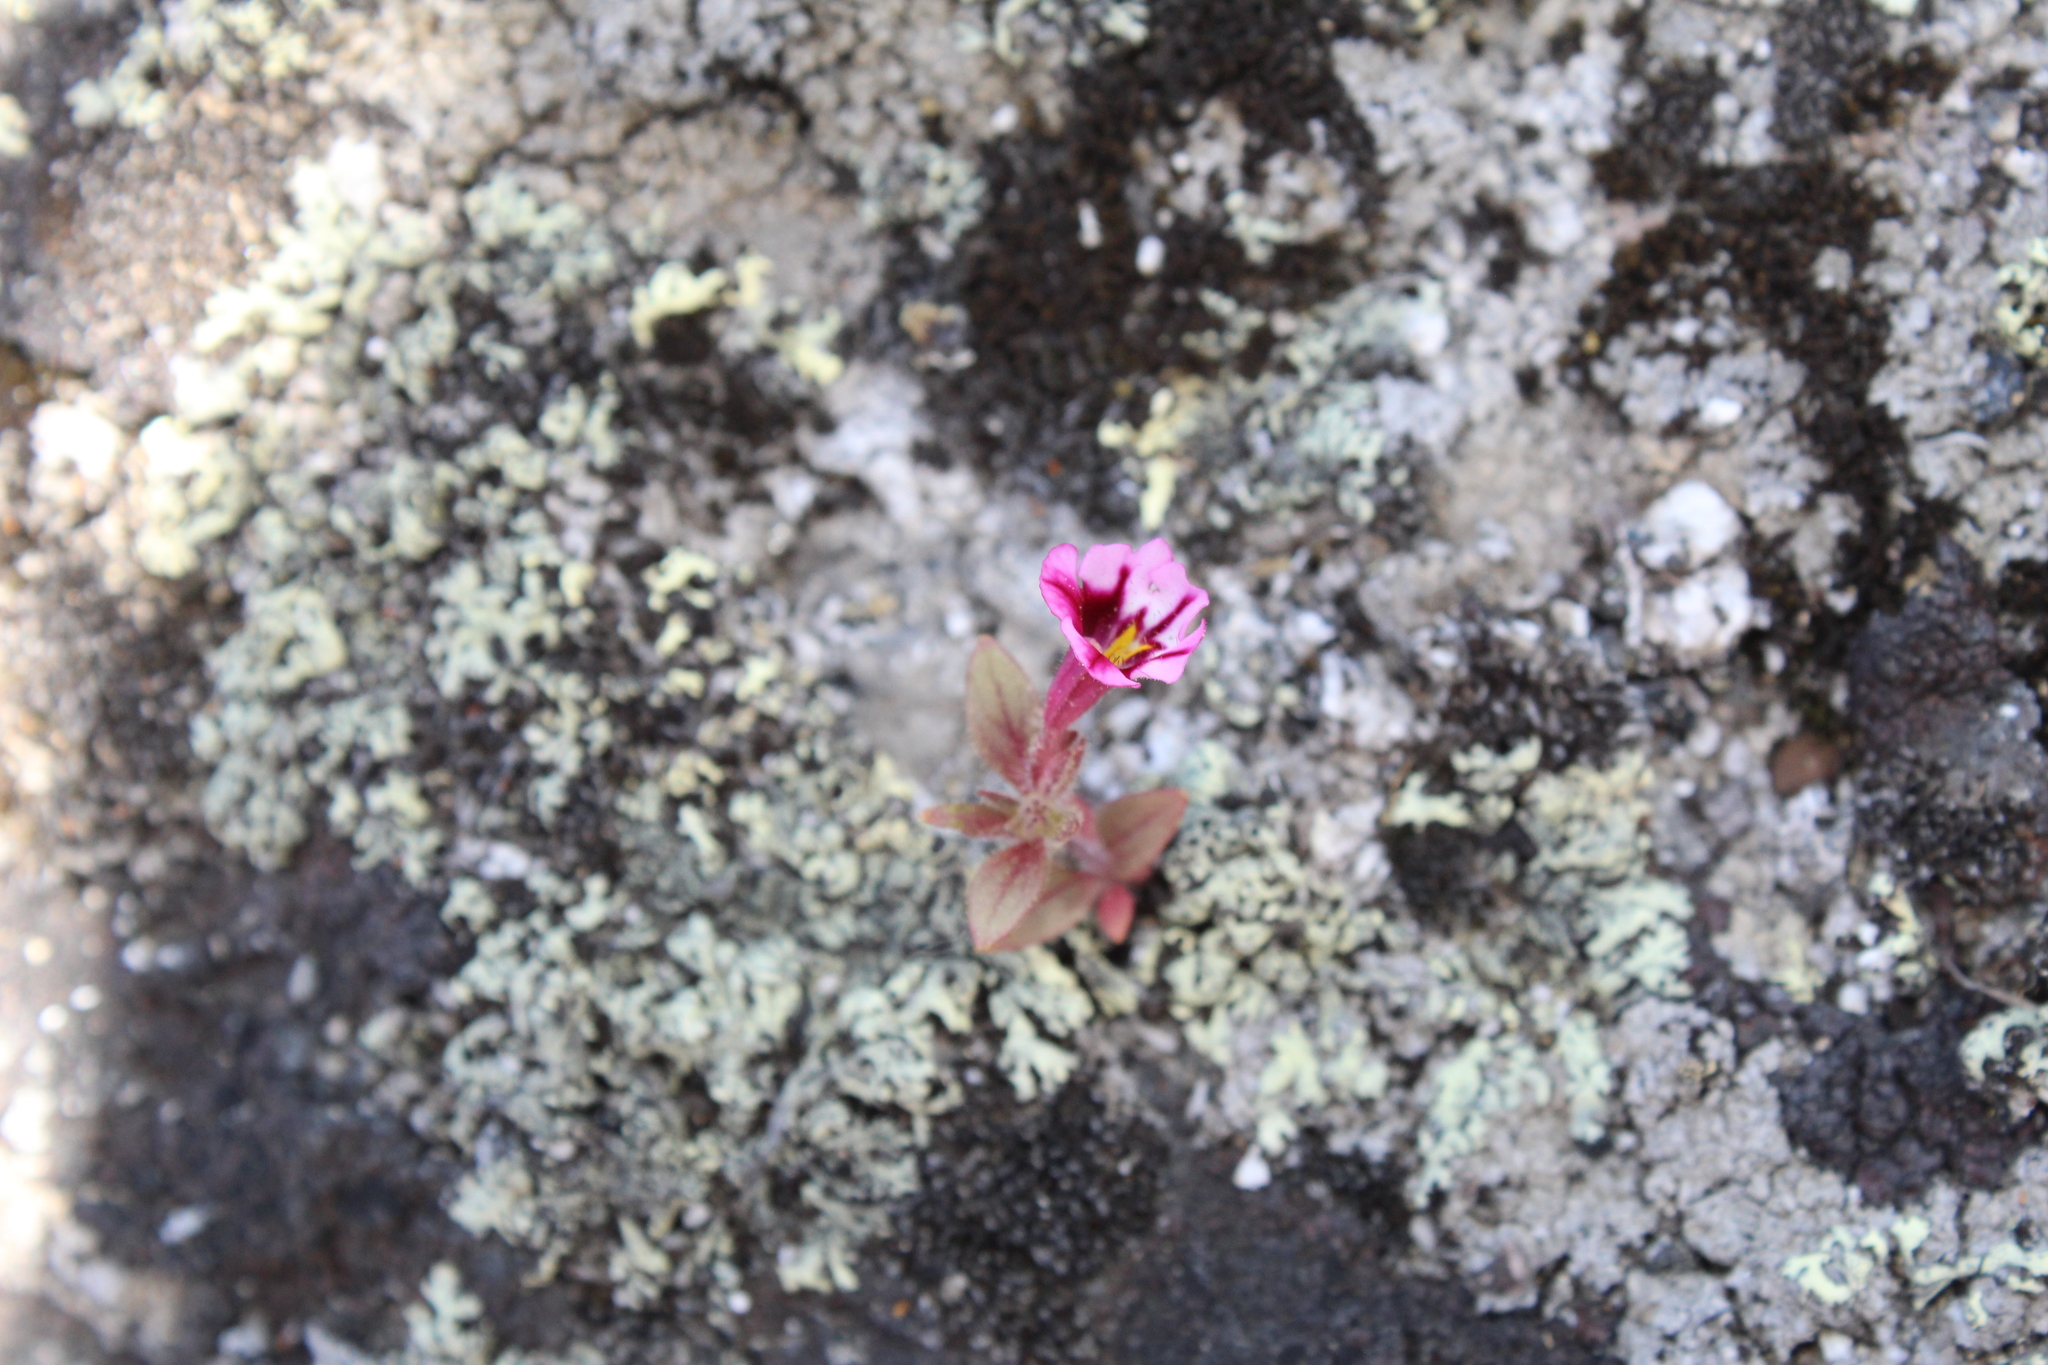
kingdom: Plantae
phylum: Tracheophyta
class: Magnoliopsida
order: Lamiales
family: Phrymaceae
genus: Diplacus
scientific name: Diplacus graniticola
